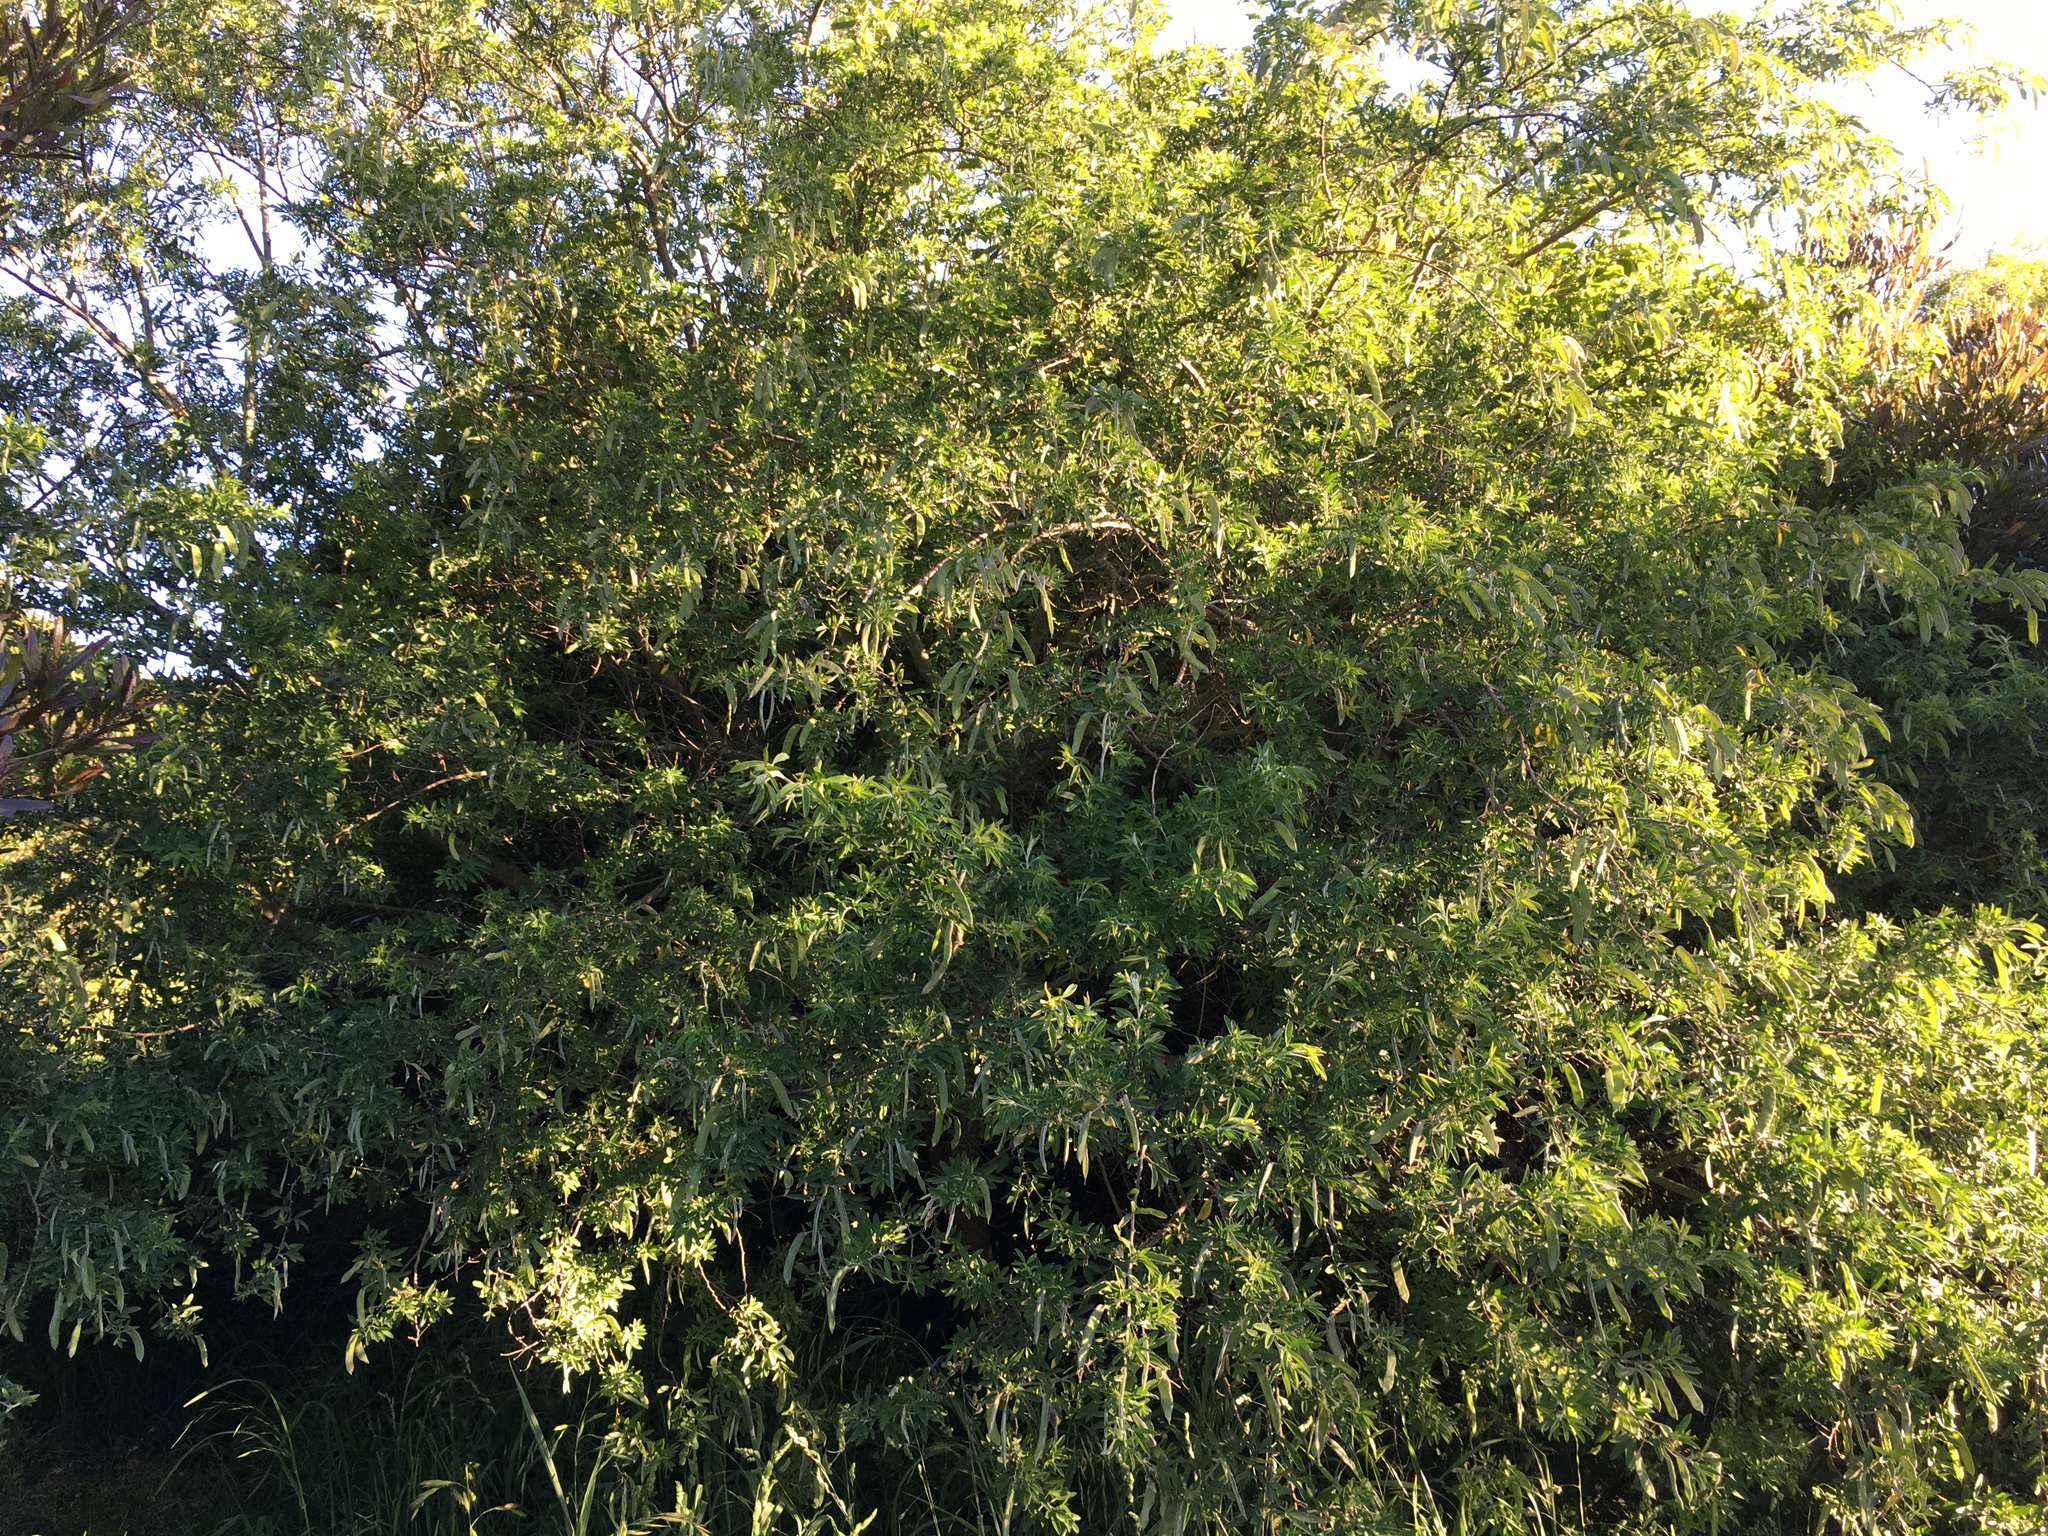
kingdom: Plantae
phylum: Tracheophyta
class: Magnoliopsida
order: Fabales
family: Fabaceae
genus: Chamaecytisus
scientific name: Chamaecytisus prolifer
